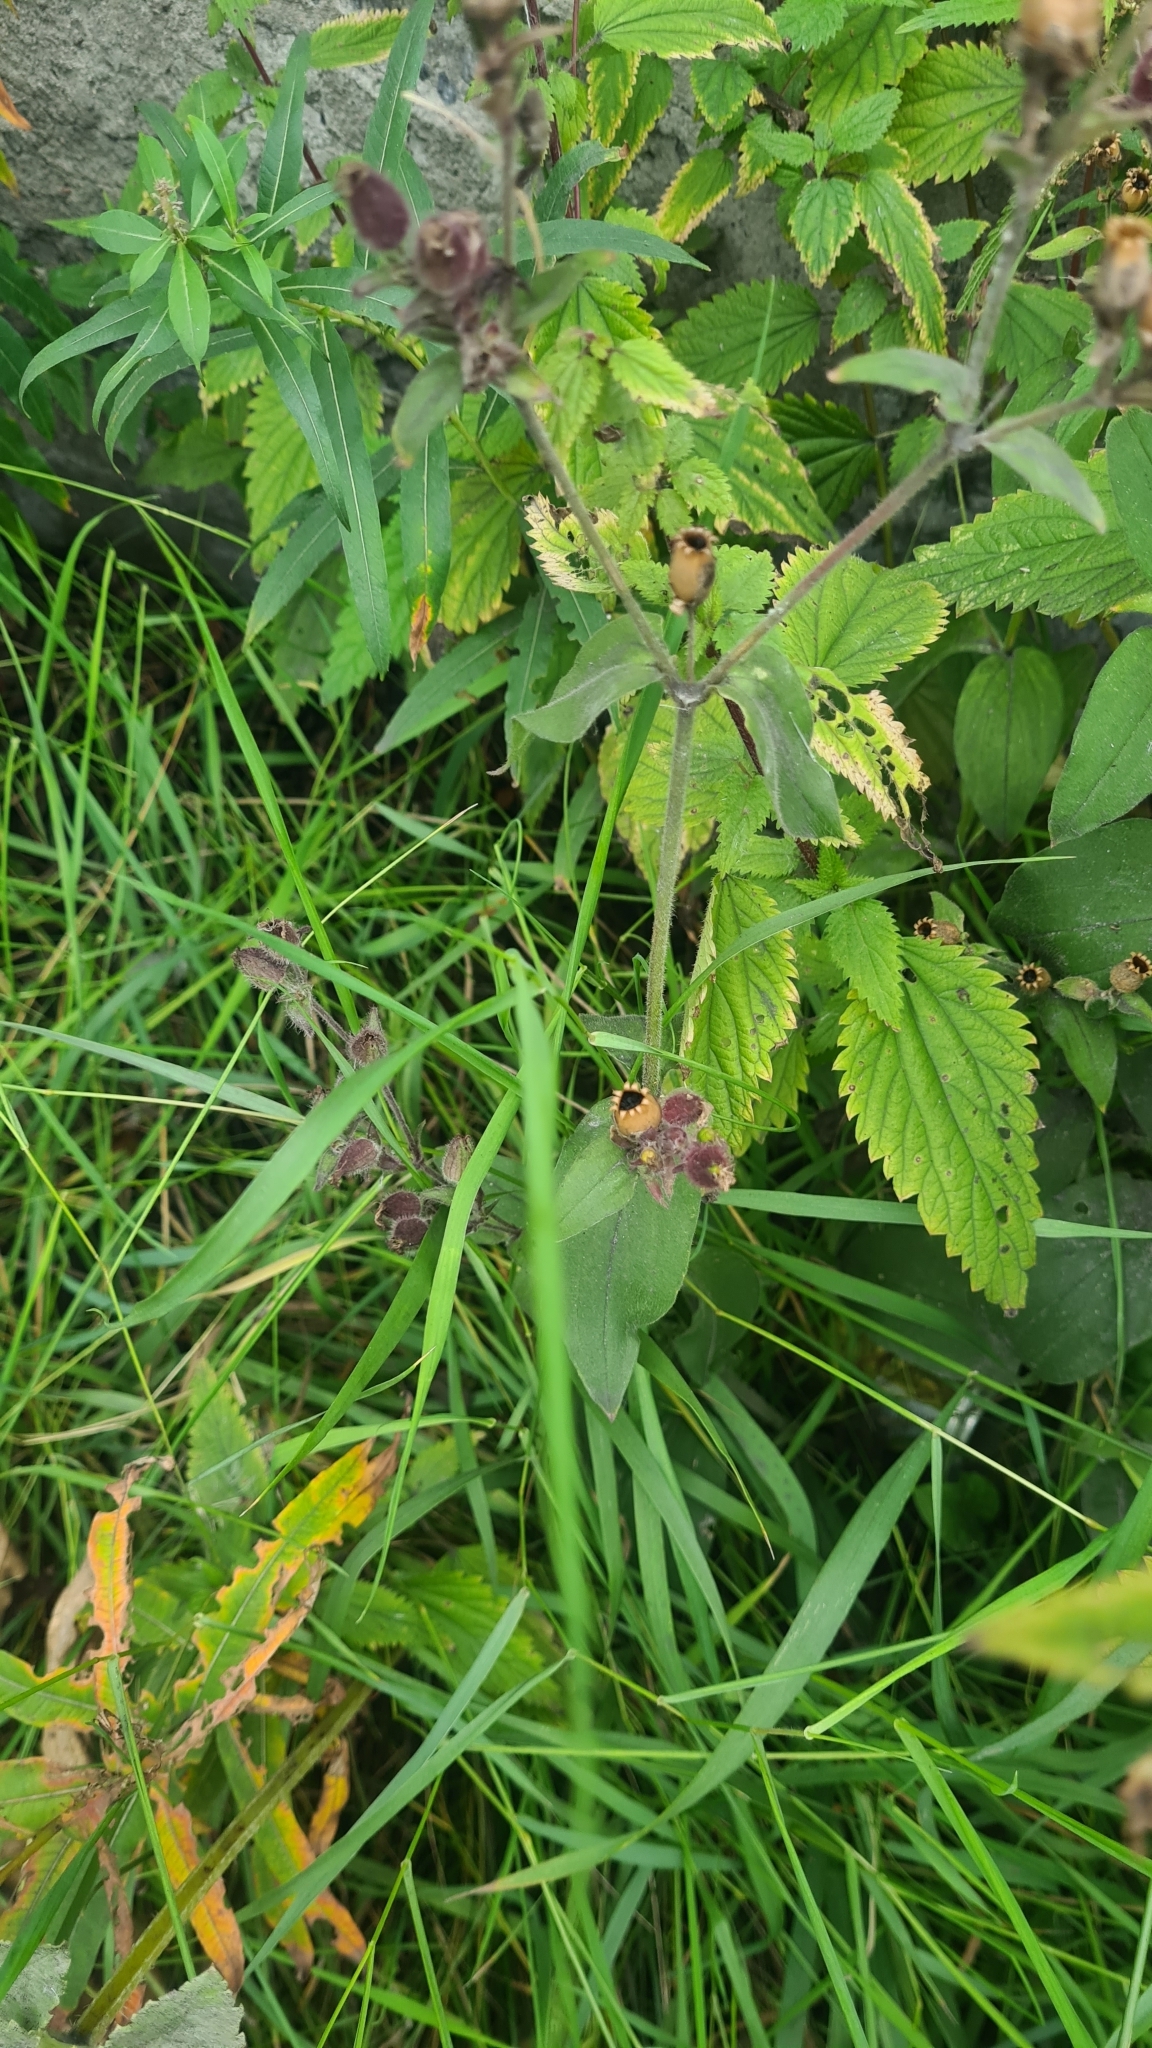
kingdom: Plantae
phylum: Tracheophyta
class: Magnoliopsida
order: Caryophyllales
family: Caryophyllaceae
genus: Silene
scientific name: Silene dioica
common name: Red campion
